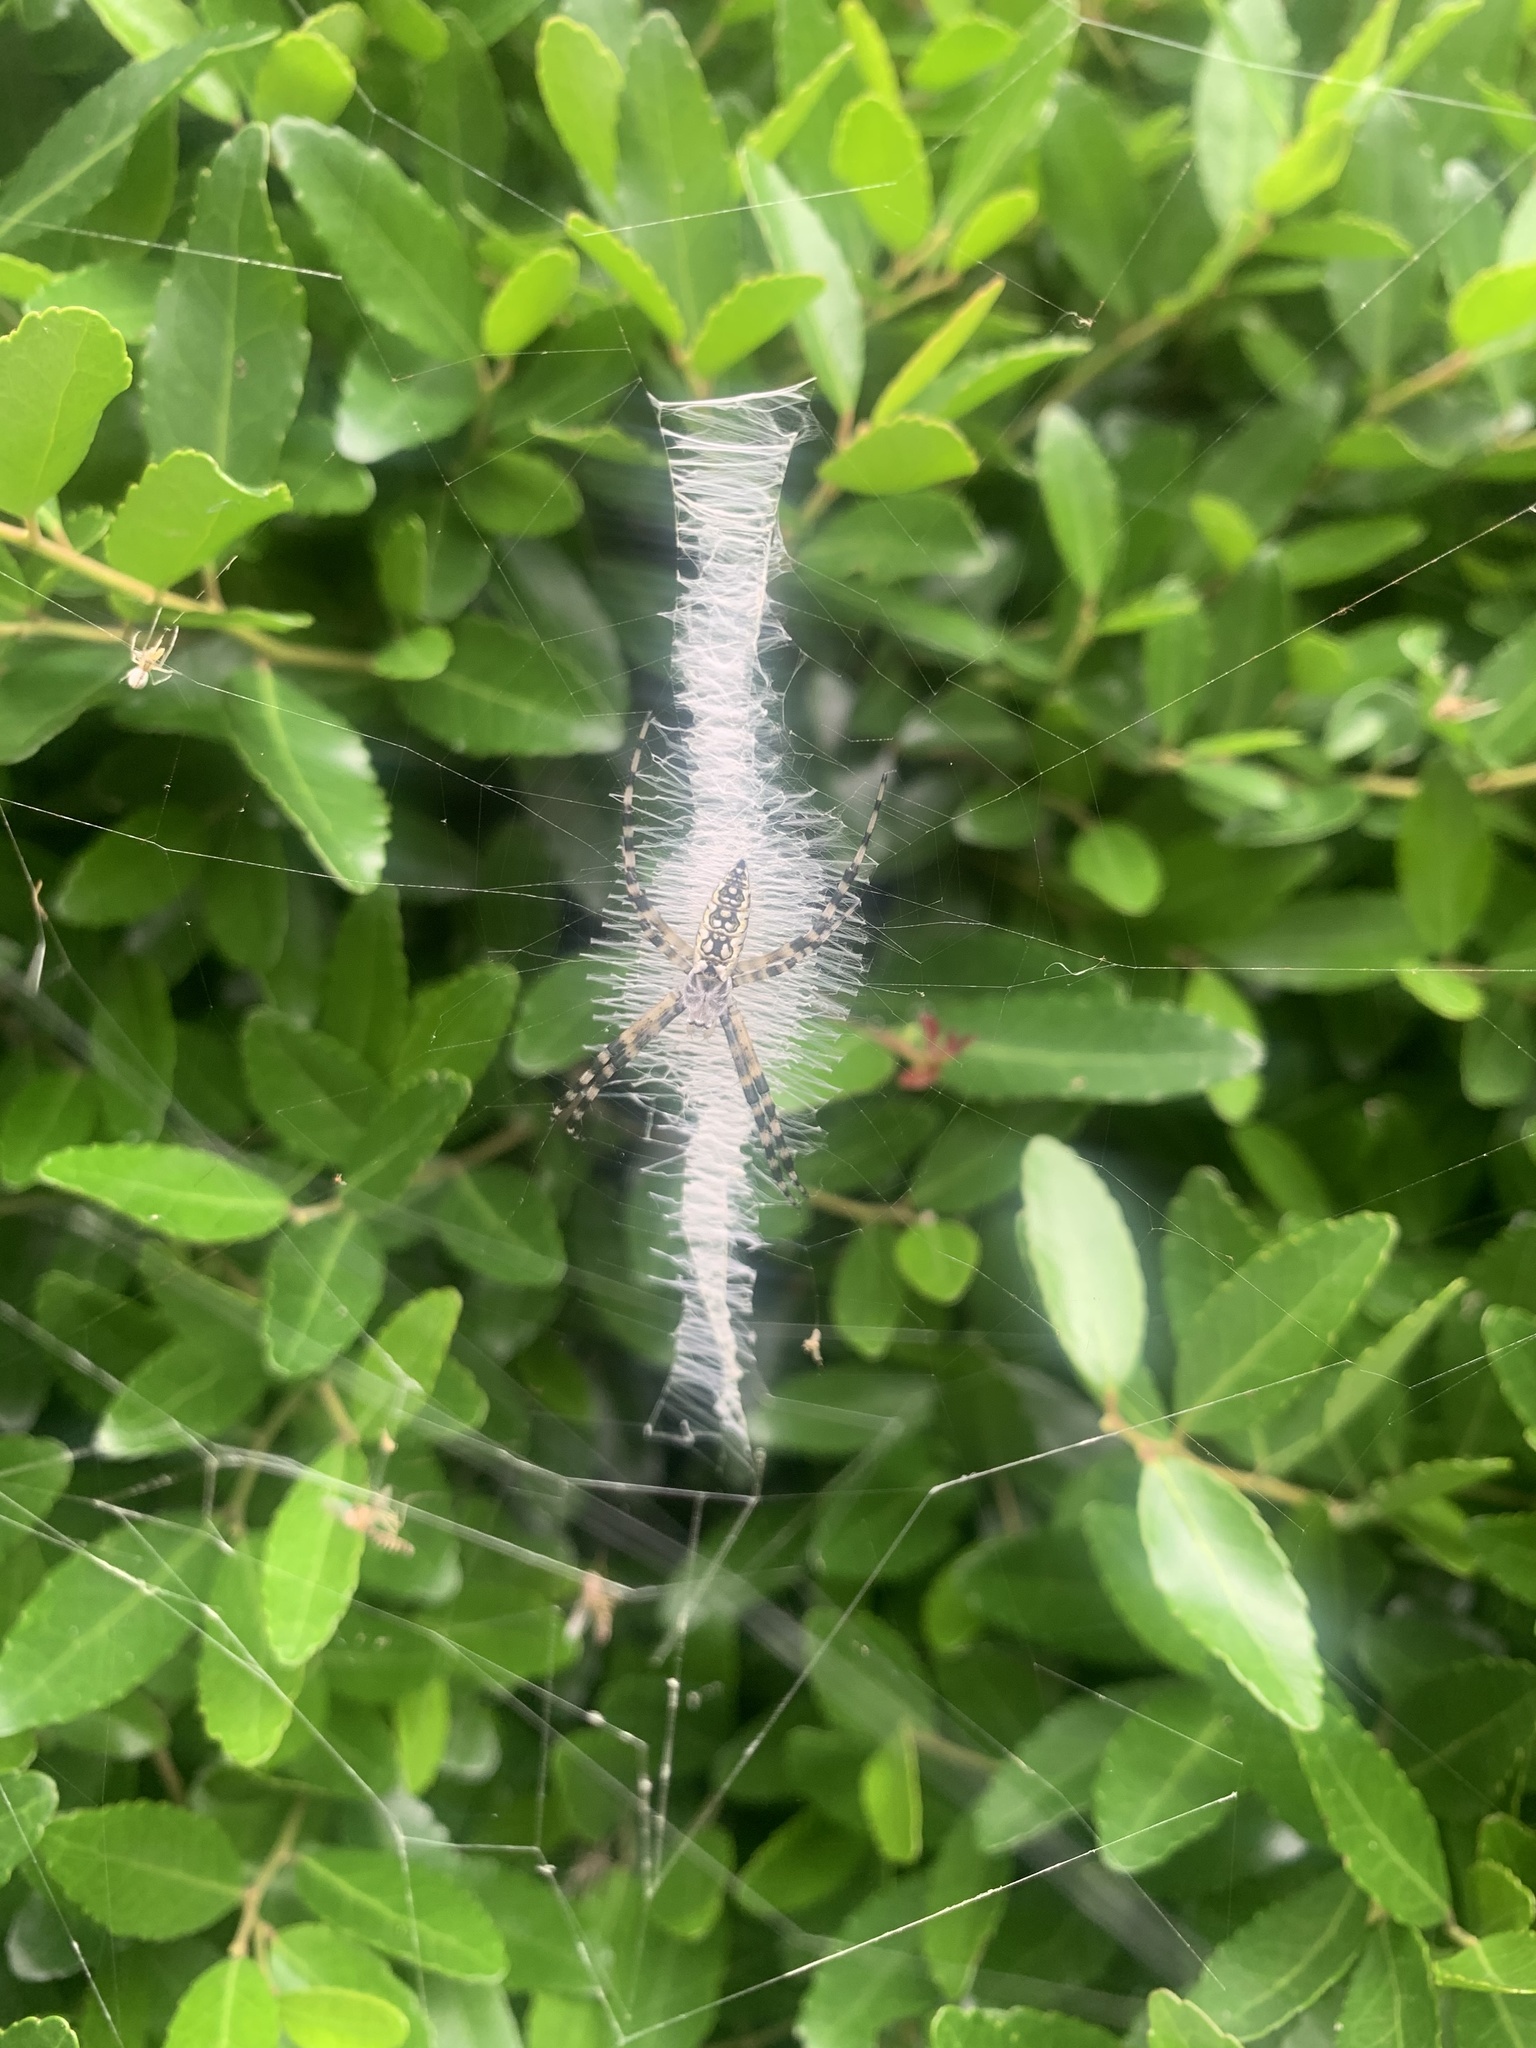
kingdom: Animalia
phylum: Arthropoda
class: Arachnida
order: Araneae
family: Araneidae
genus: Argiope
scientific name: Argiope aurantia
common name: Orb weavers
